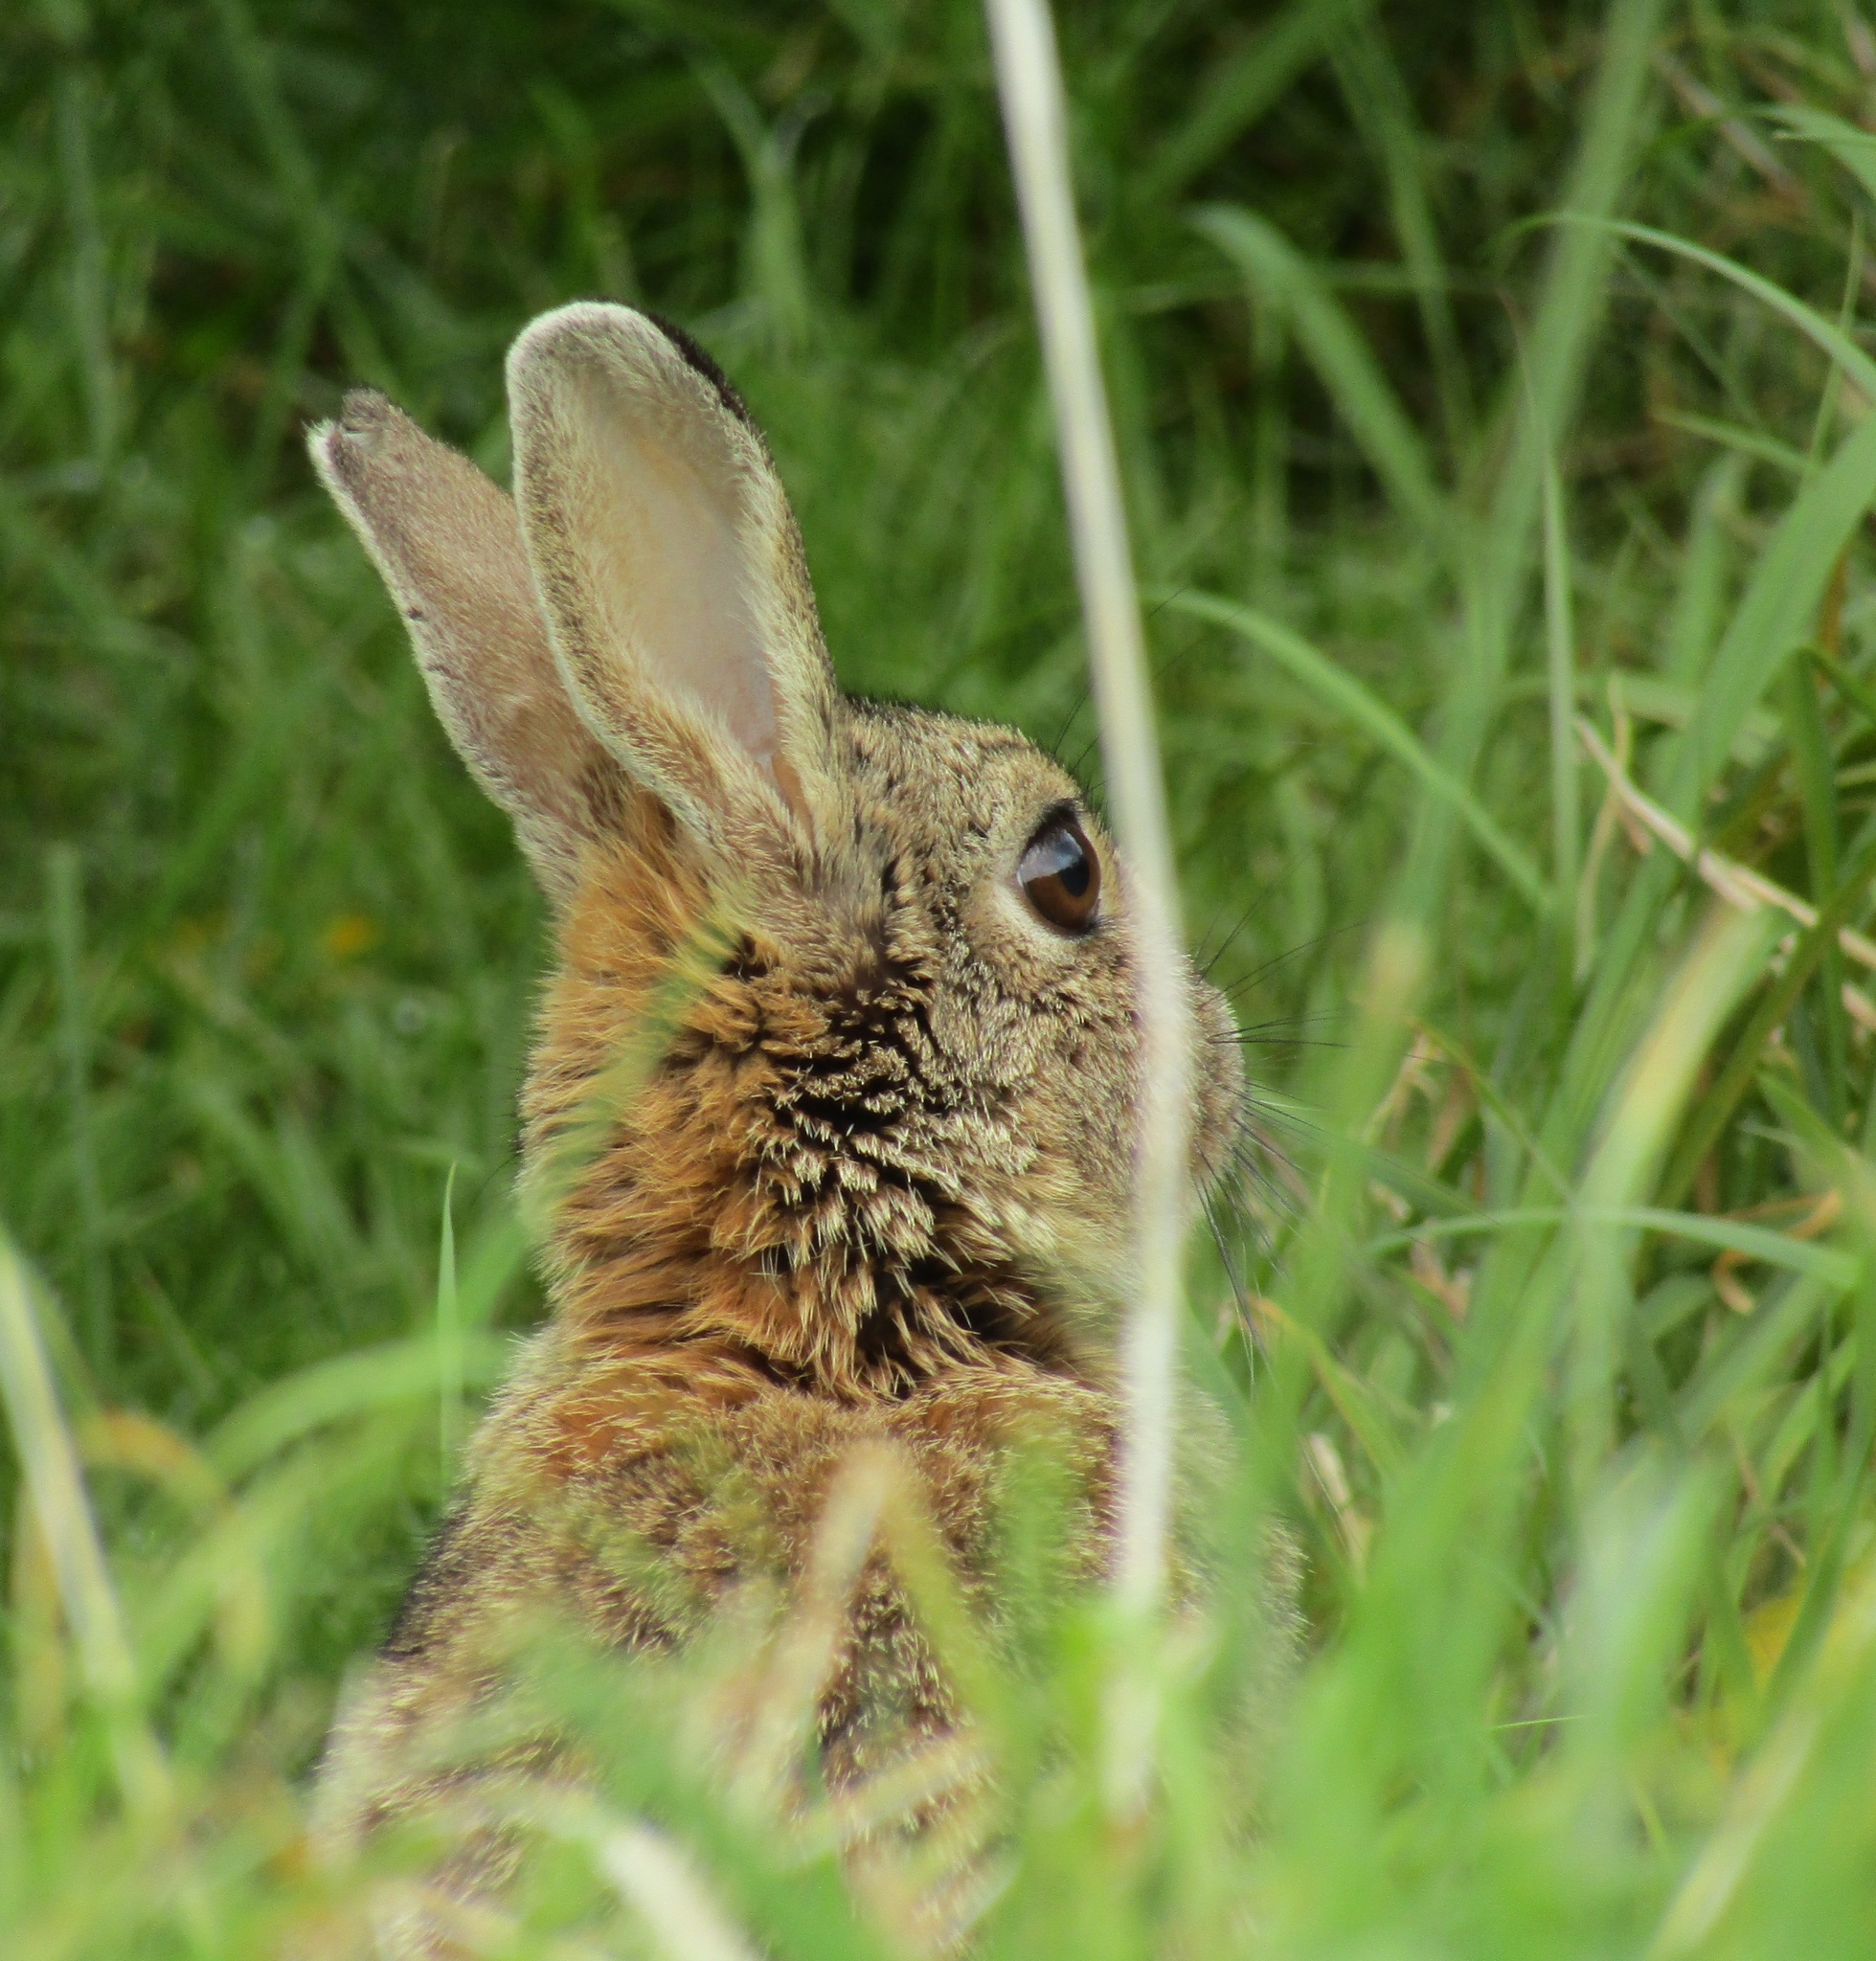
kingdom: Animalia
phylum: Chordata
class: Mammalia
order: Lagomorpha
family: Leporidae
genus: Oryctolagus
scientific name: Oryctolagus cuniculus
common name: European rabbit
